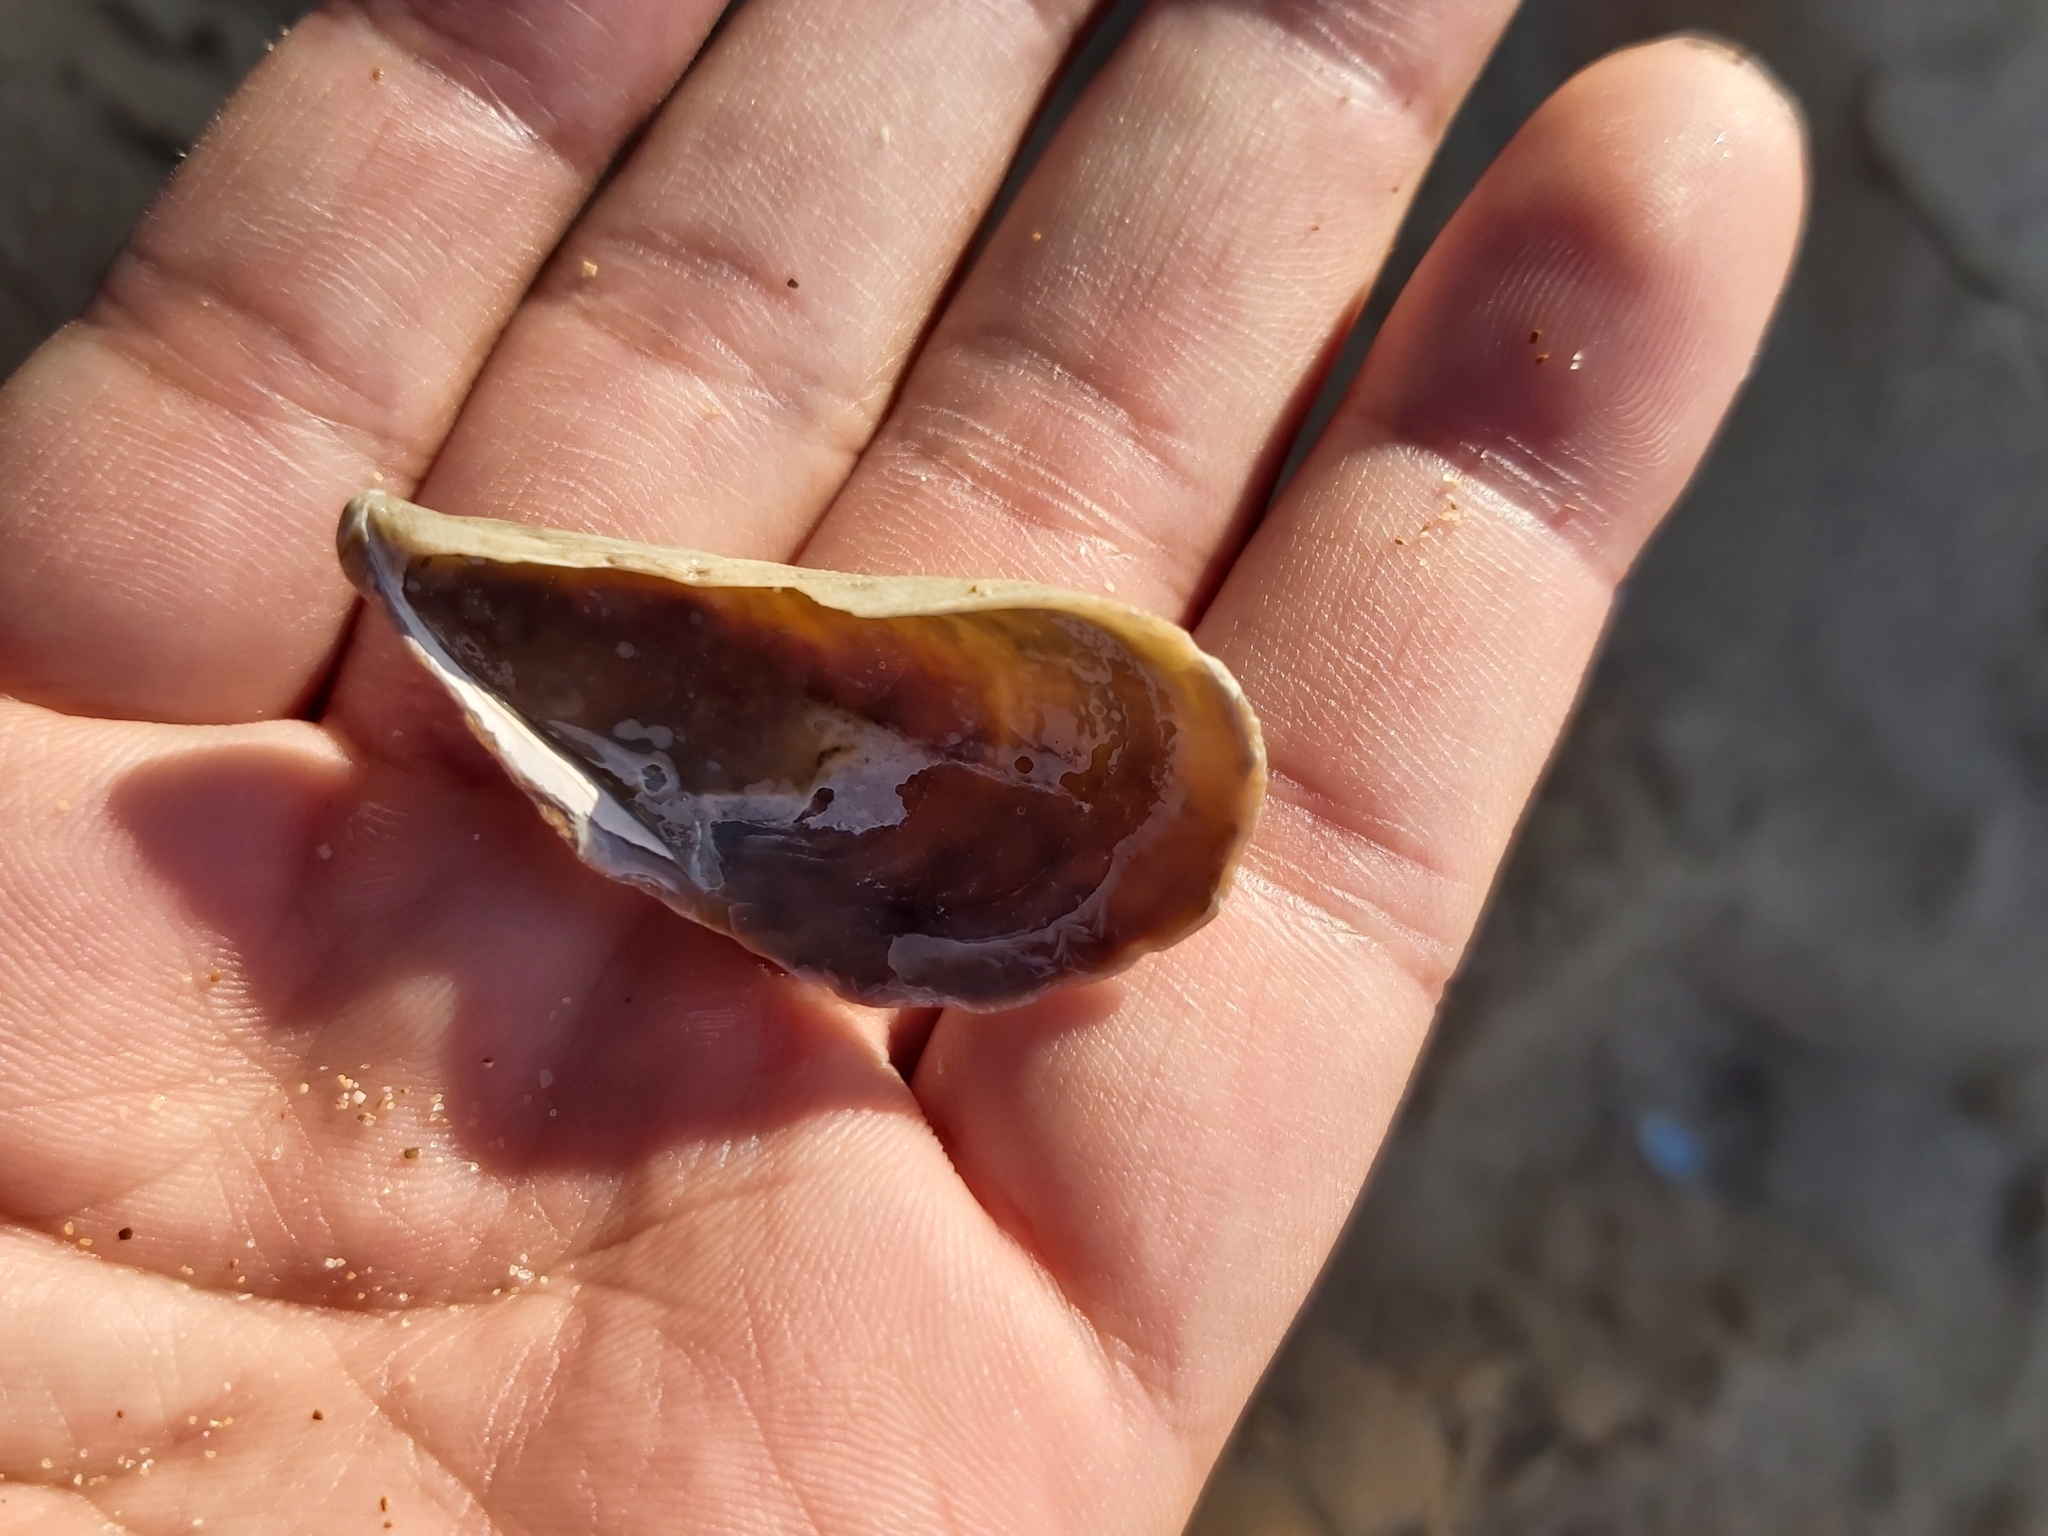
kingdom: Animalia
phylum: Mollusca
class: Bivalvia
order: Mytilida
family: Mytilidae
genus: Trichomya
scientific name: Trichomya hirsuta
